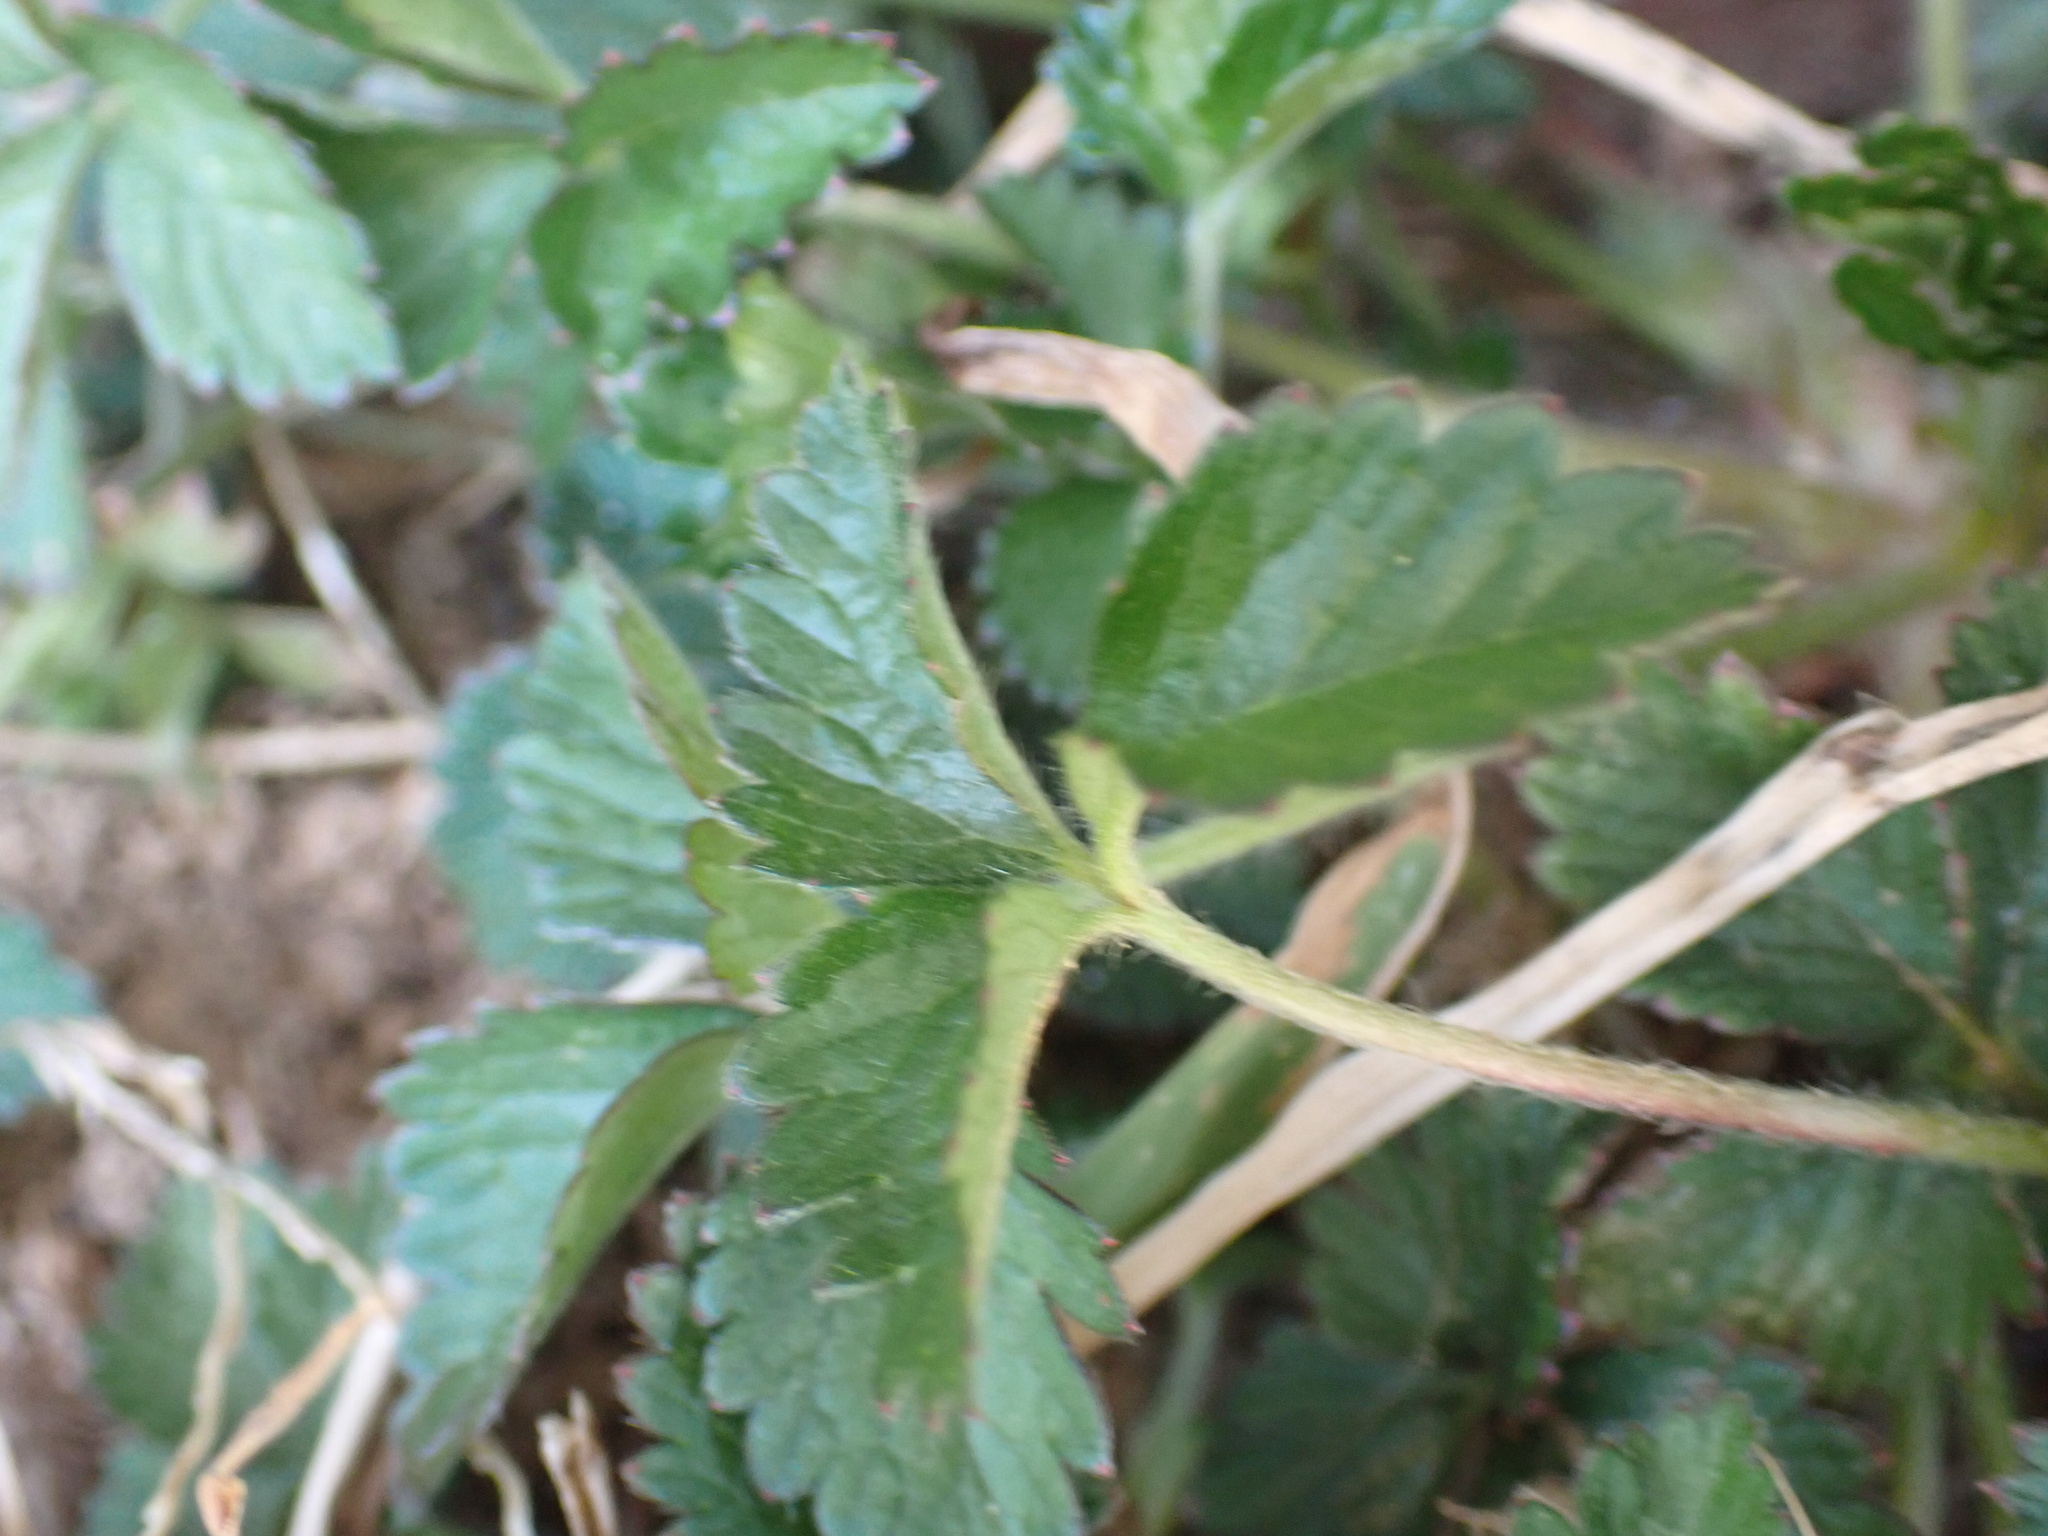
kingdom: Plantae
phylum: Tracheophyta
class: Magnoliopsida
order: Rosales
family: Rosaceae
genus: Potentilla
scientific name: Potentilla indica
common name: Yellow-flowered strawberry
